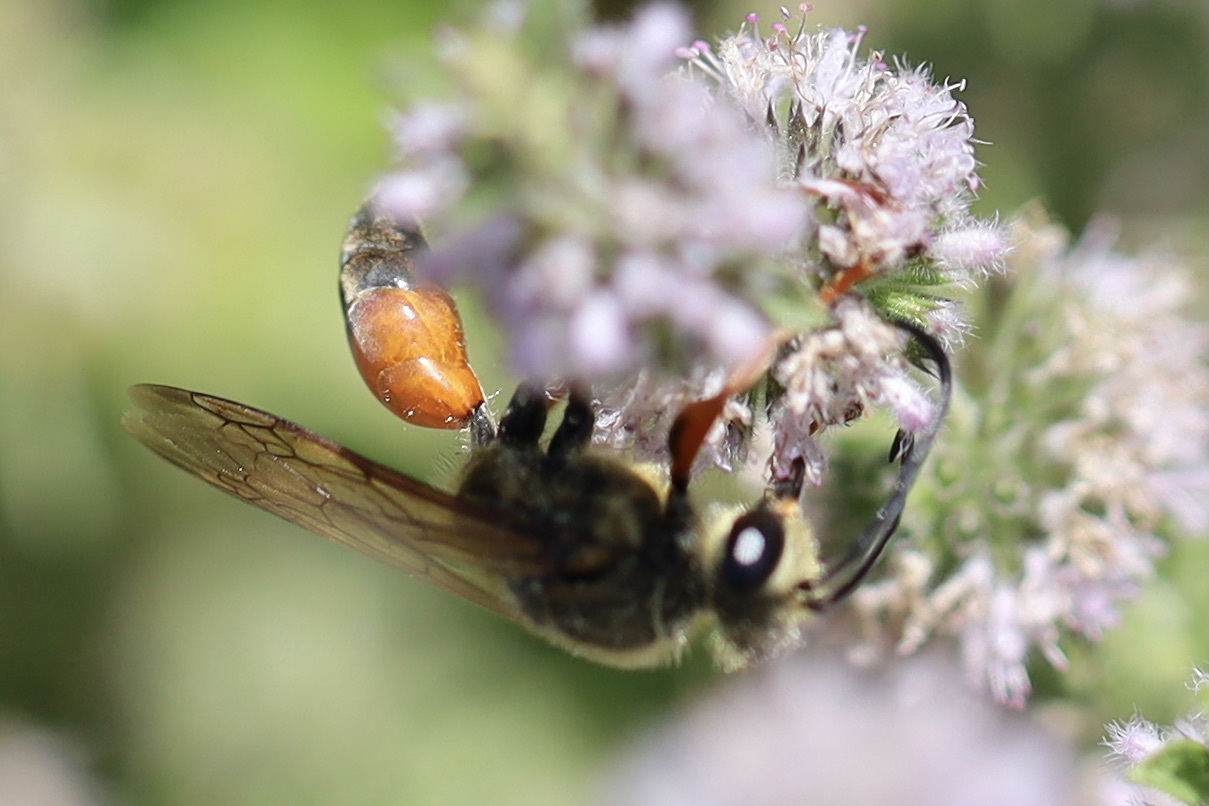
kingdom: Animalia
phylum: Arthropoda
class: Insecta
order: Hymenoptera
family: Sphecidae
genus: Sphex
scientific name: Sphex ichneumoneus
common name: Great golden digger wasp
